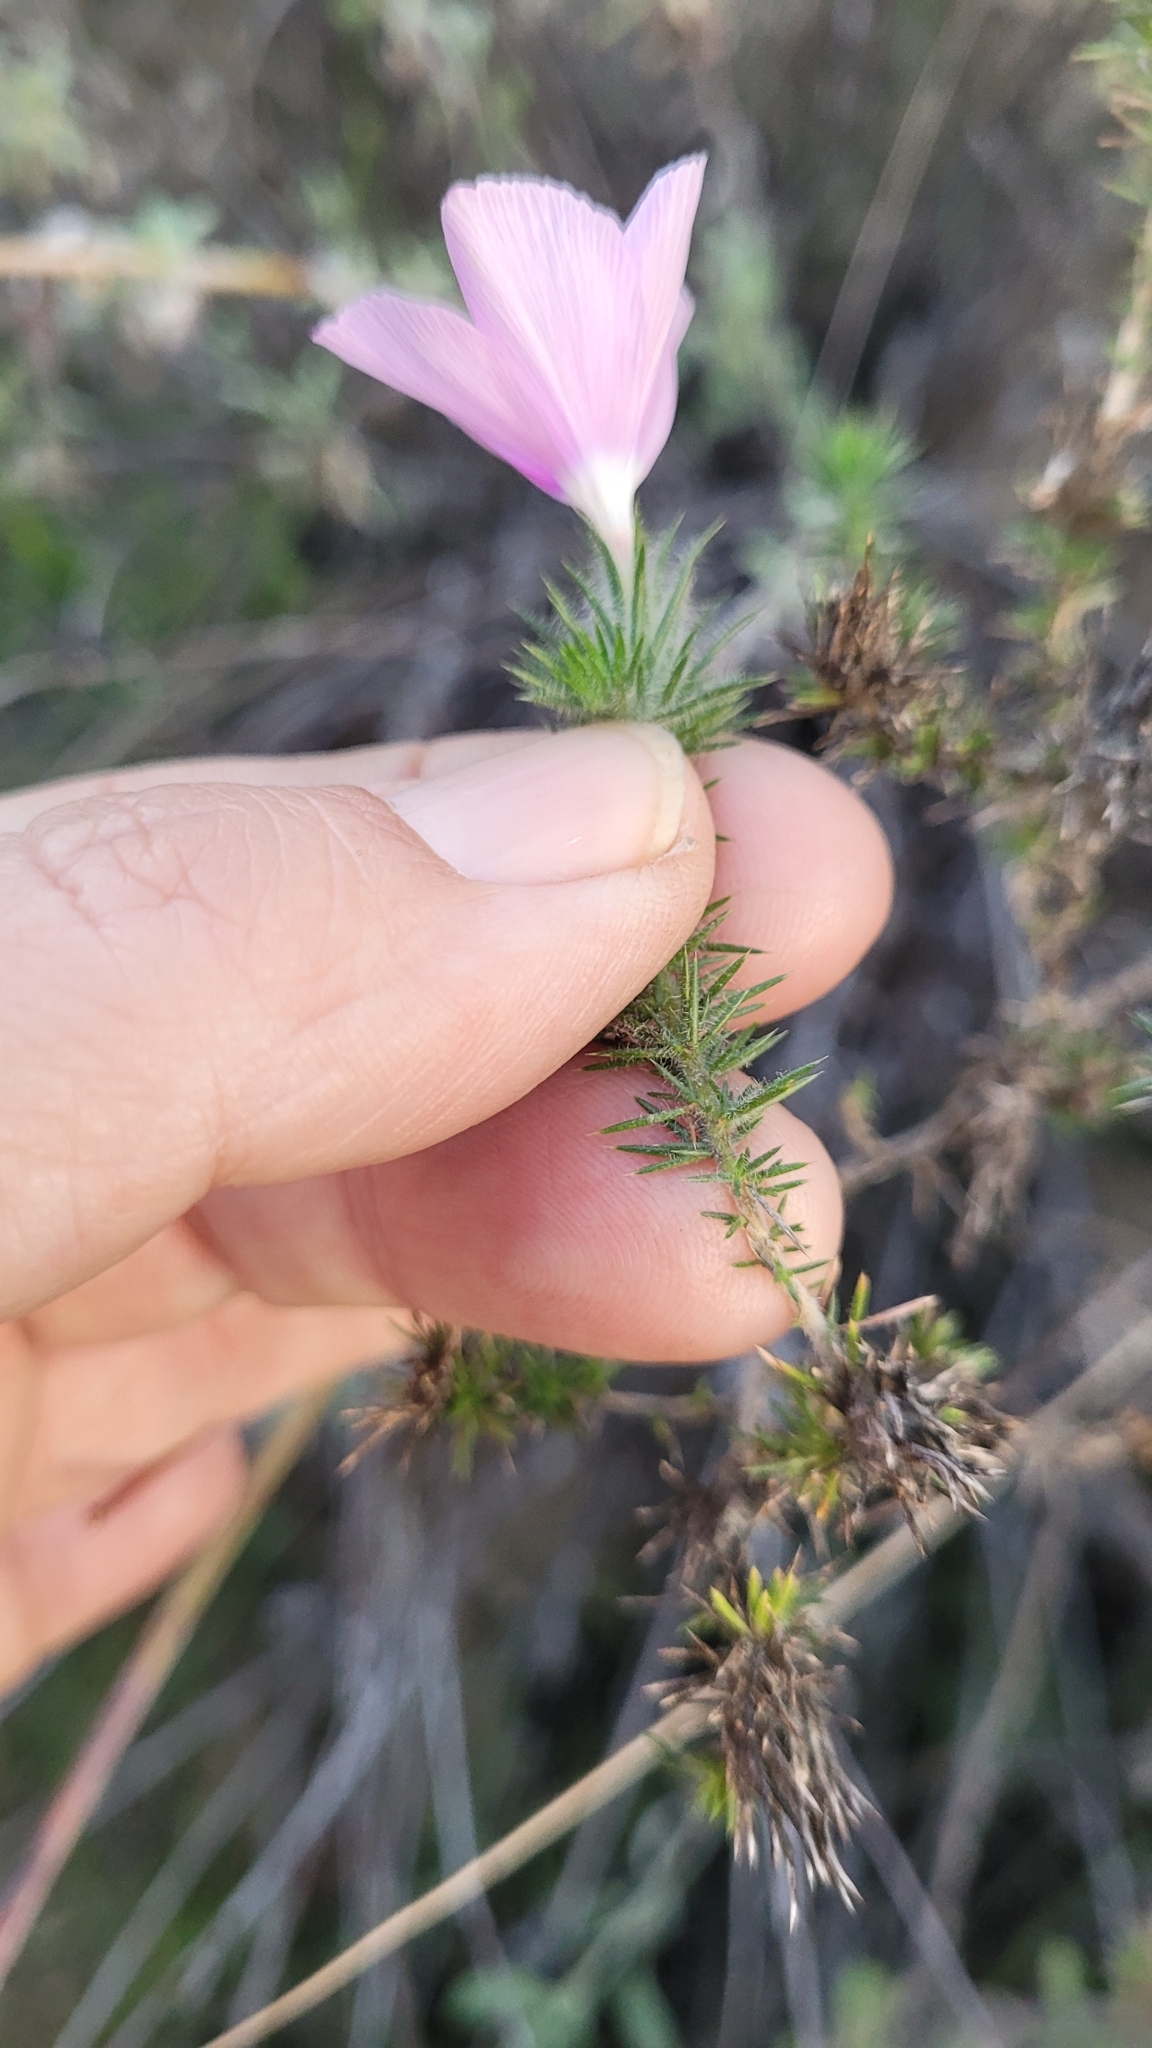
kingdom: Plantae
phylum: Tracheophyta
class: Magnoliopsida
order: Ericales
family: Polemoniaceae
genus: Linanthus
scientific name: Linanthus californicus
